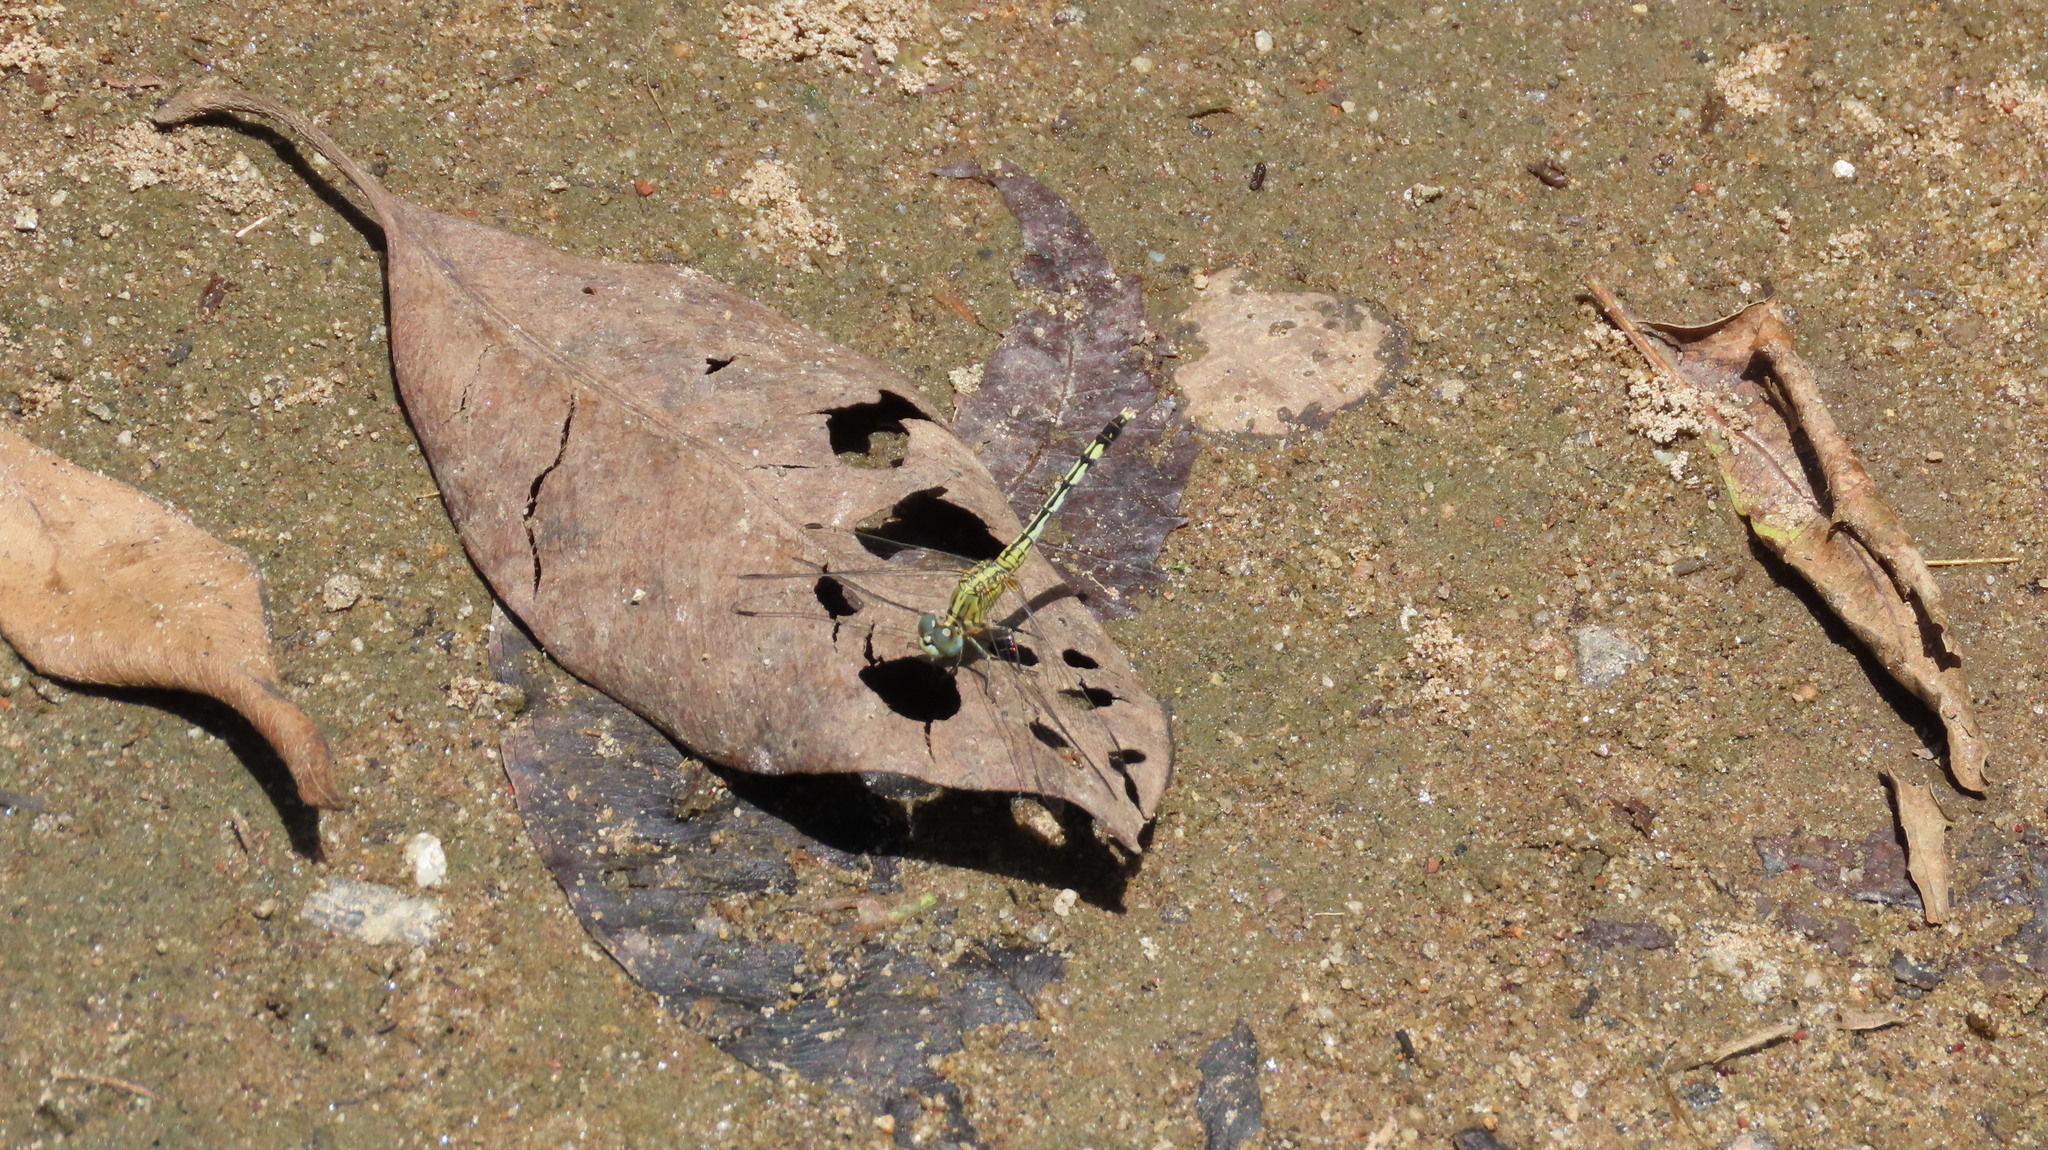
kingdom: Animalia
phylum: Arthropoda
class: Insecta
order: Odonata
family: Libellulidae
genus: Diplacodes
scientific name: Diplacodes trivialis
